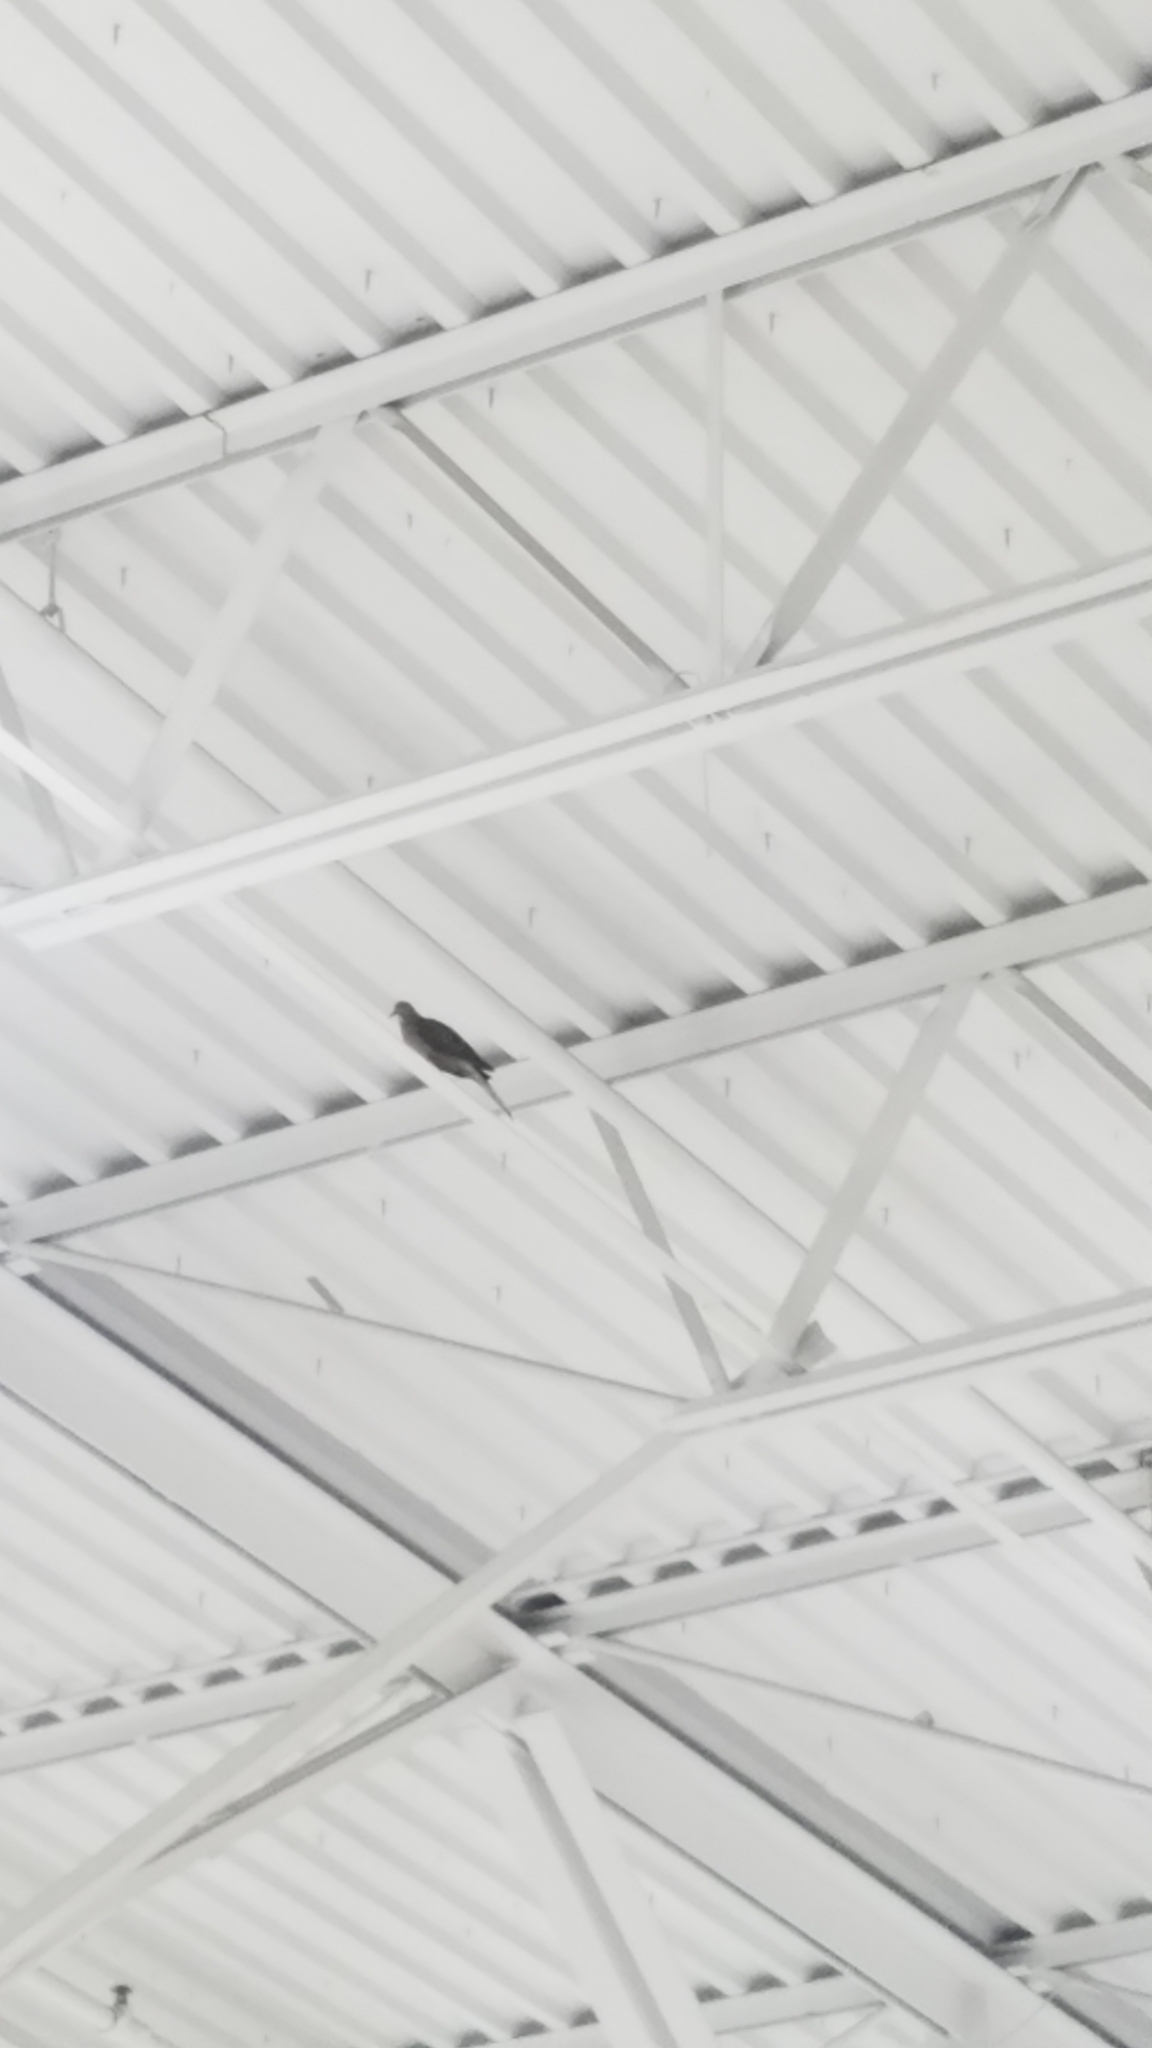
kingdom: Animalia
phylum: Chordata
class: Aves
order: Columbiformes
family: Columbidae
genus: Zenaida
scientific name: Zenaida macroura
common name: Mourning dove
